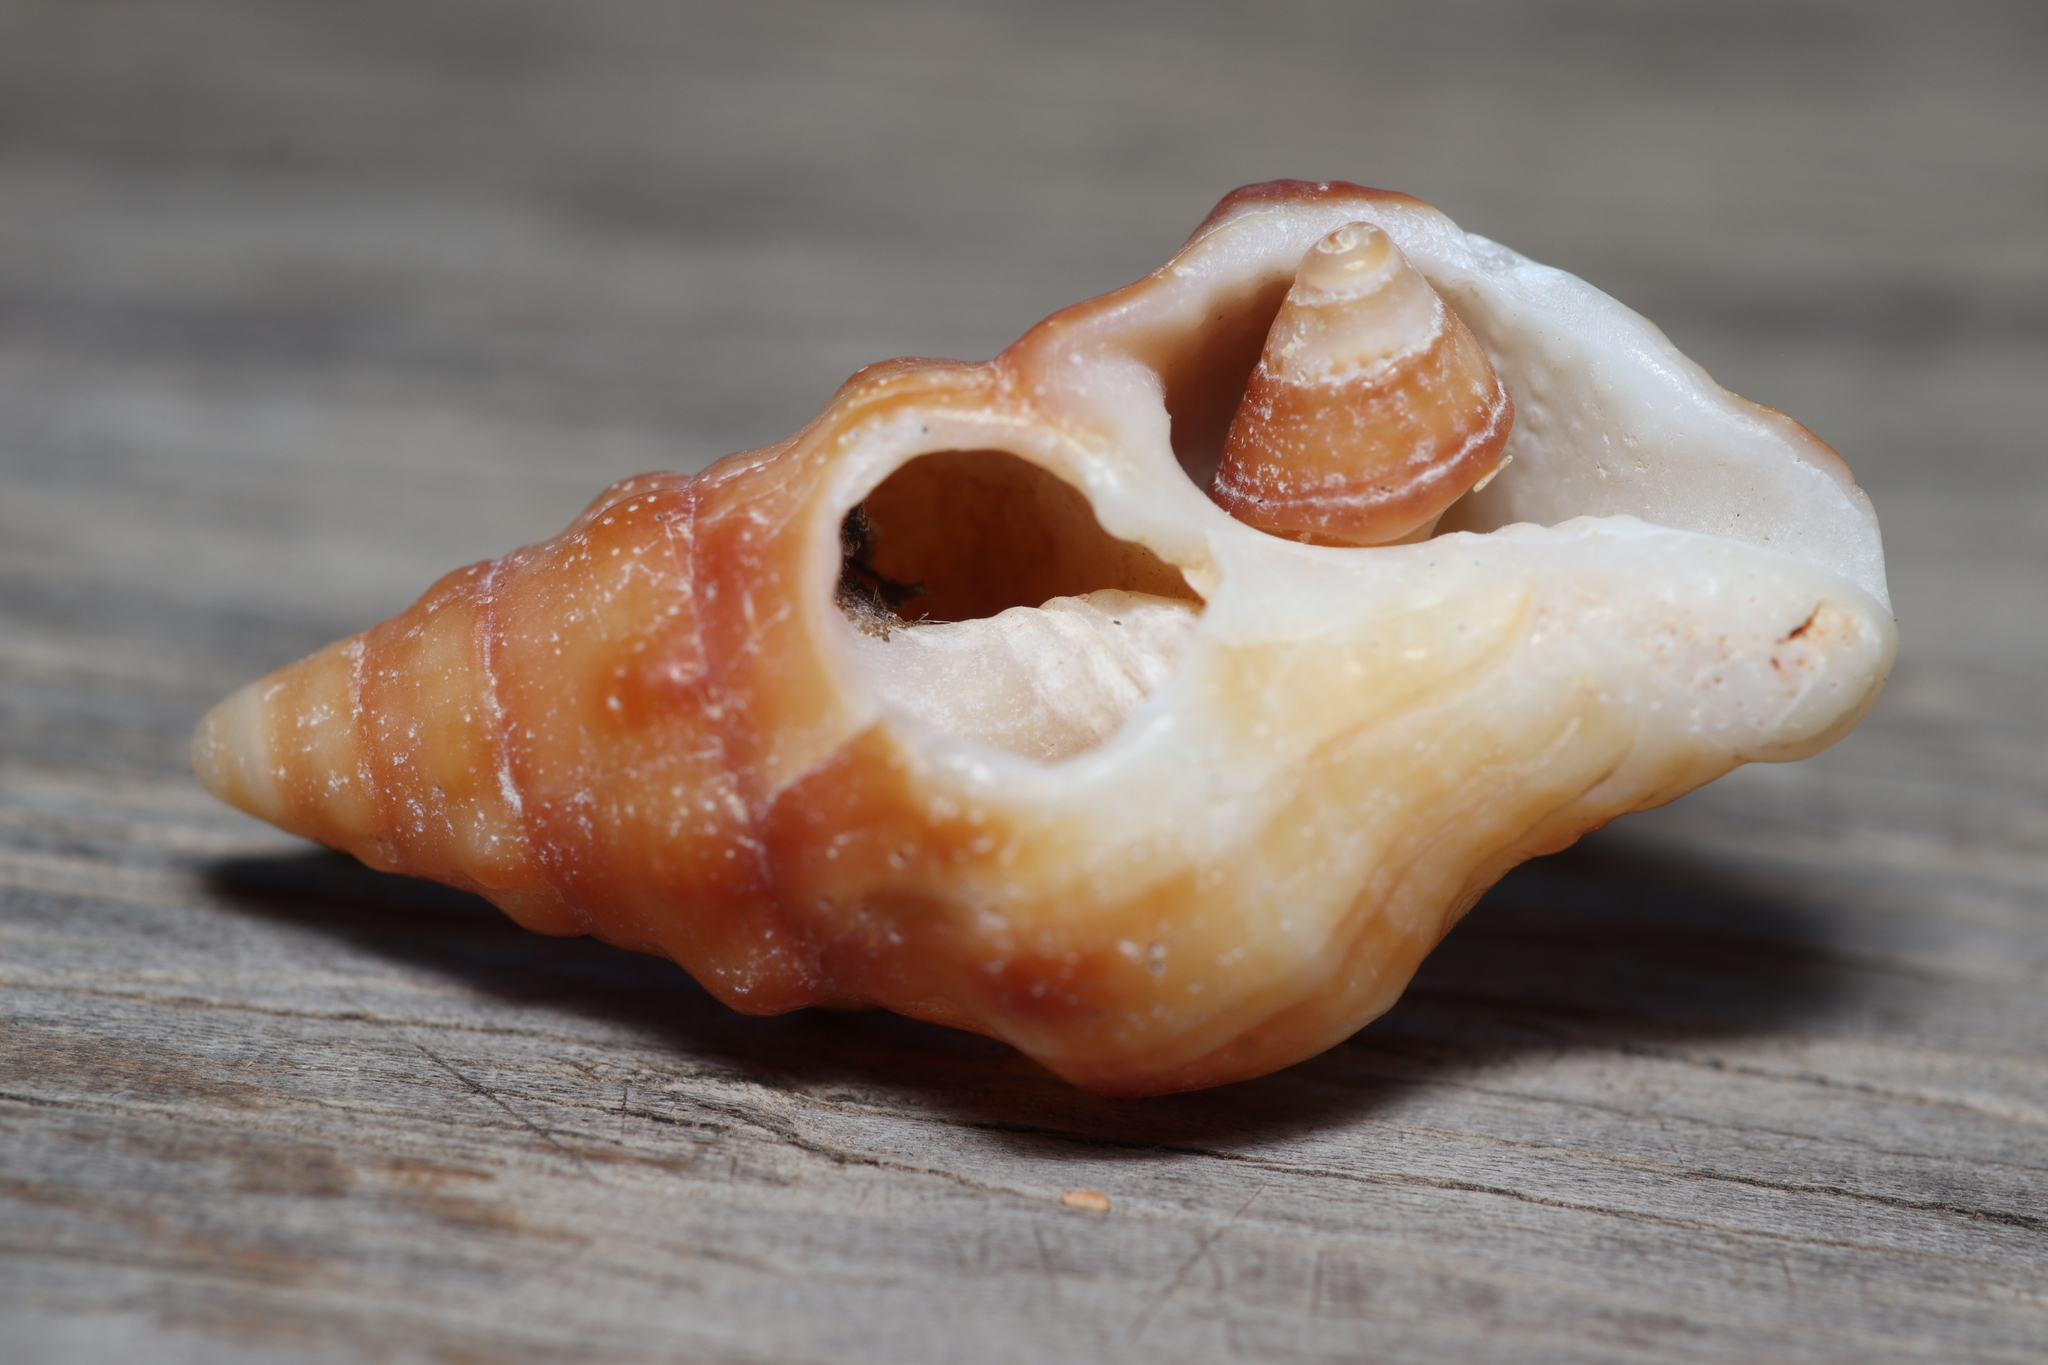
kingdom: Animalia
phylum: Mollusca
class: Gastropoda
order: Neogastropoda
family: Fasciolariidae
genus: Leucozonia
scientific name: Leucozonia nassa
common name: Chestnut latirus
